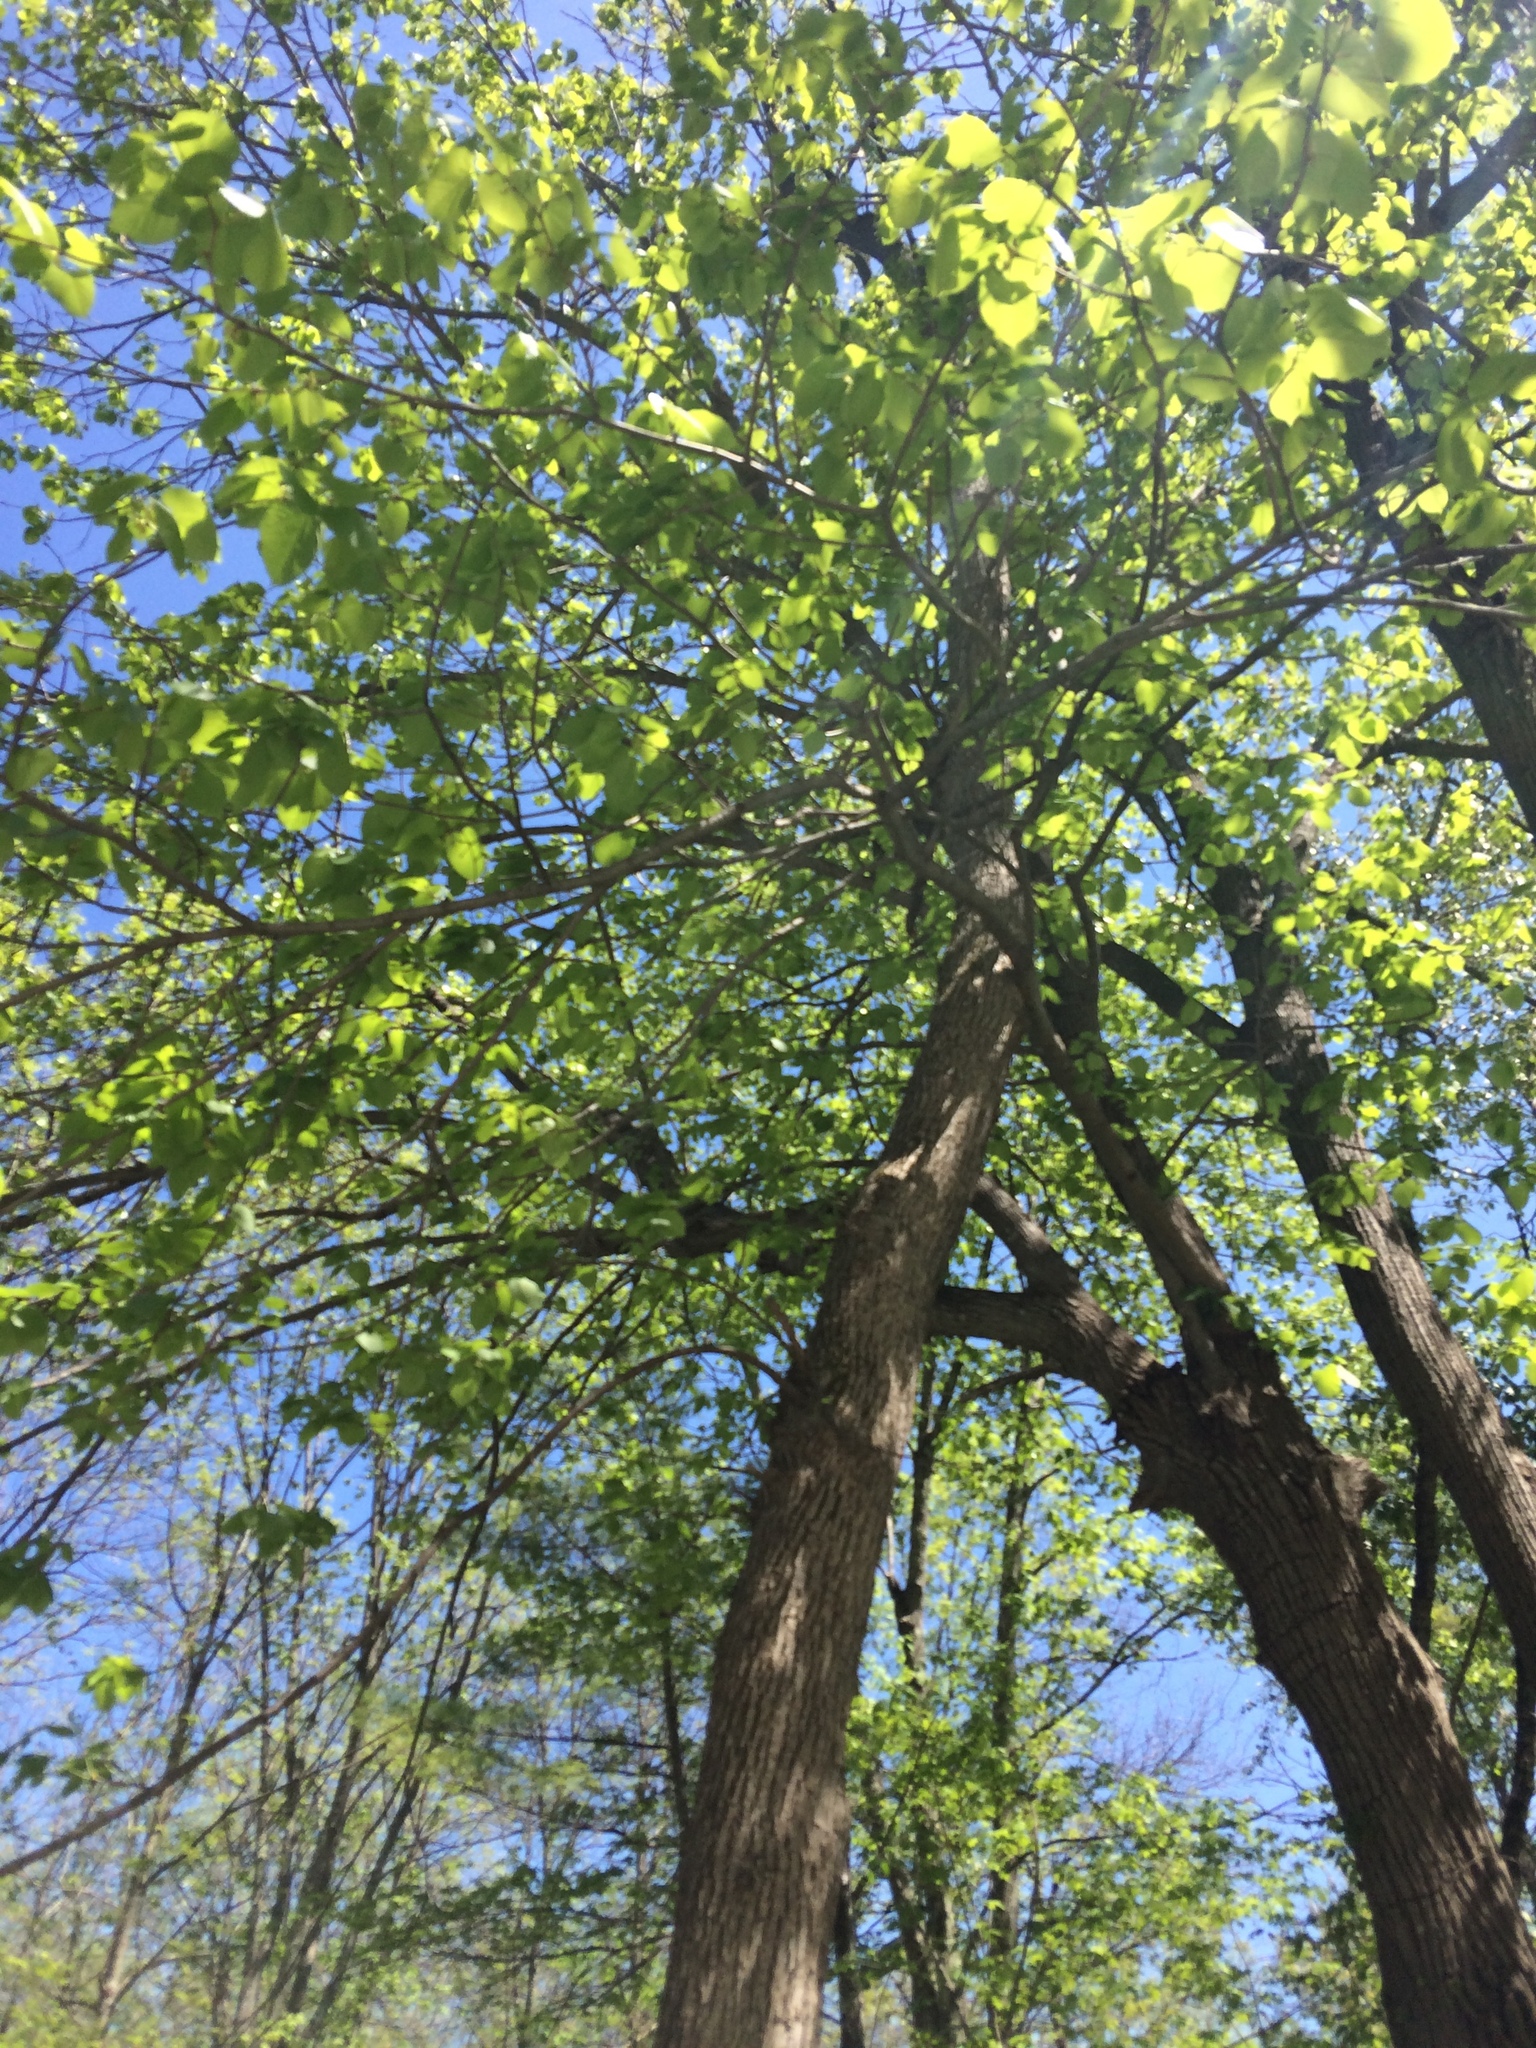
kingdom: Plantae
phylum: Tracheophyta
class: Magnoliopsida
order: Malvales
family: Malvaceae
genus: Tilia
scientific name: Tilia americana
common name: Basswood
